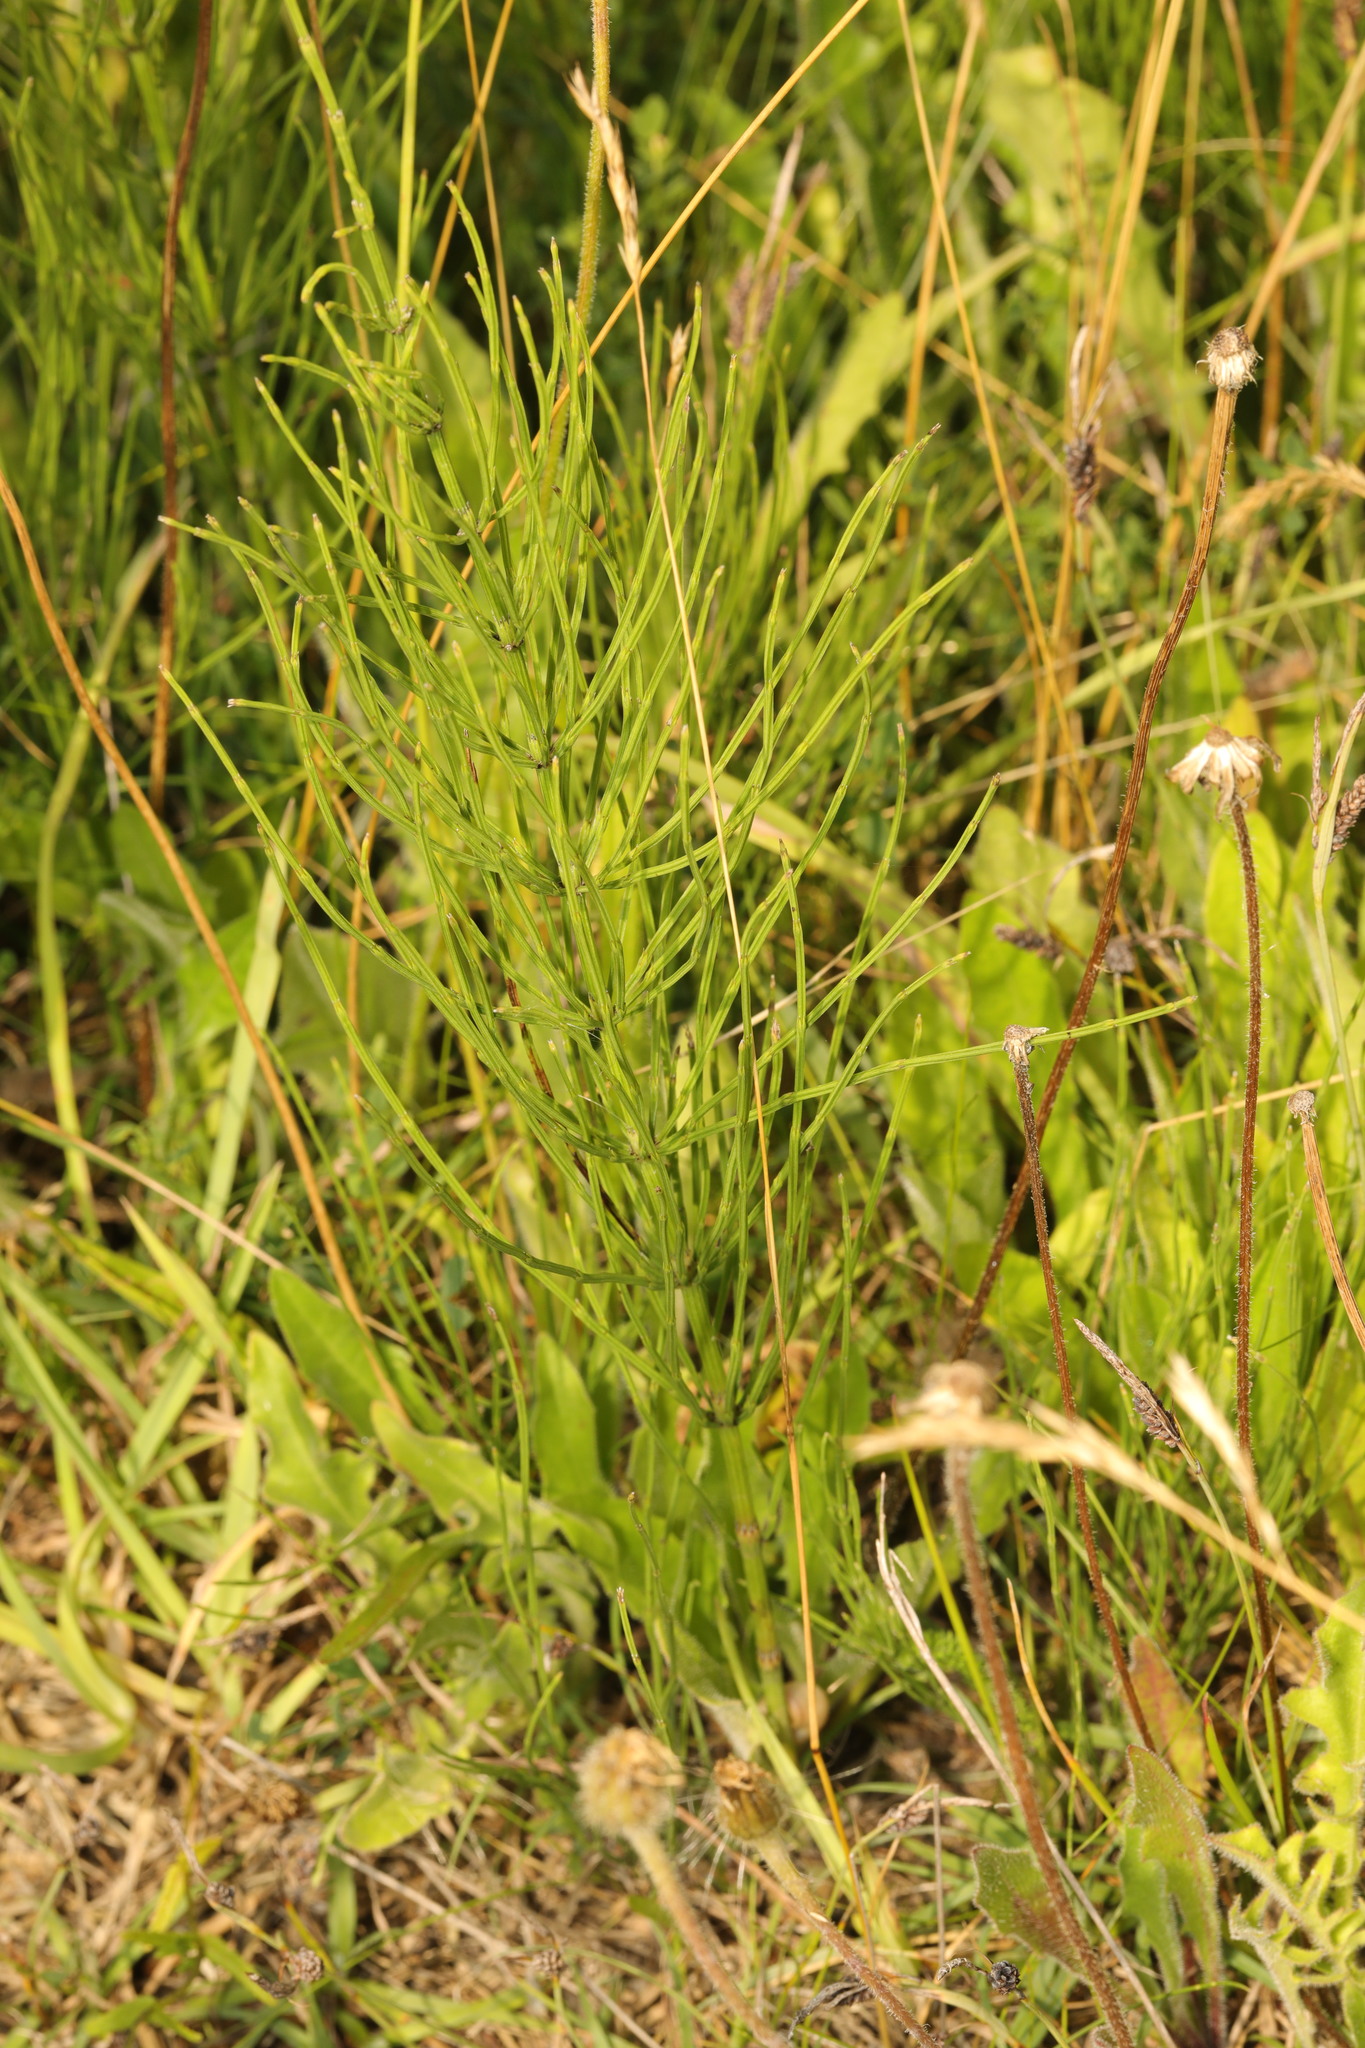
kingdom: Plantae
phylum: Tracheophyta
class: Polypodiopsida
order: Equisetales
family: Equisetaceae
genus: Equisetum
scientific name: Equisetum arvense
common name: Field horsetail
